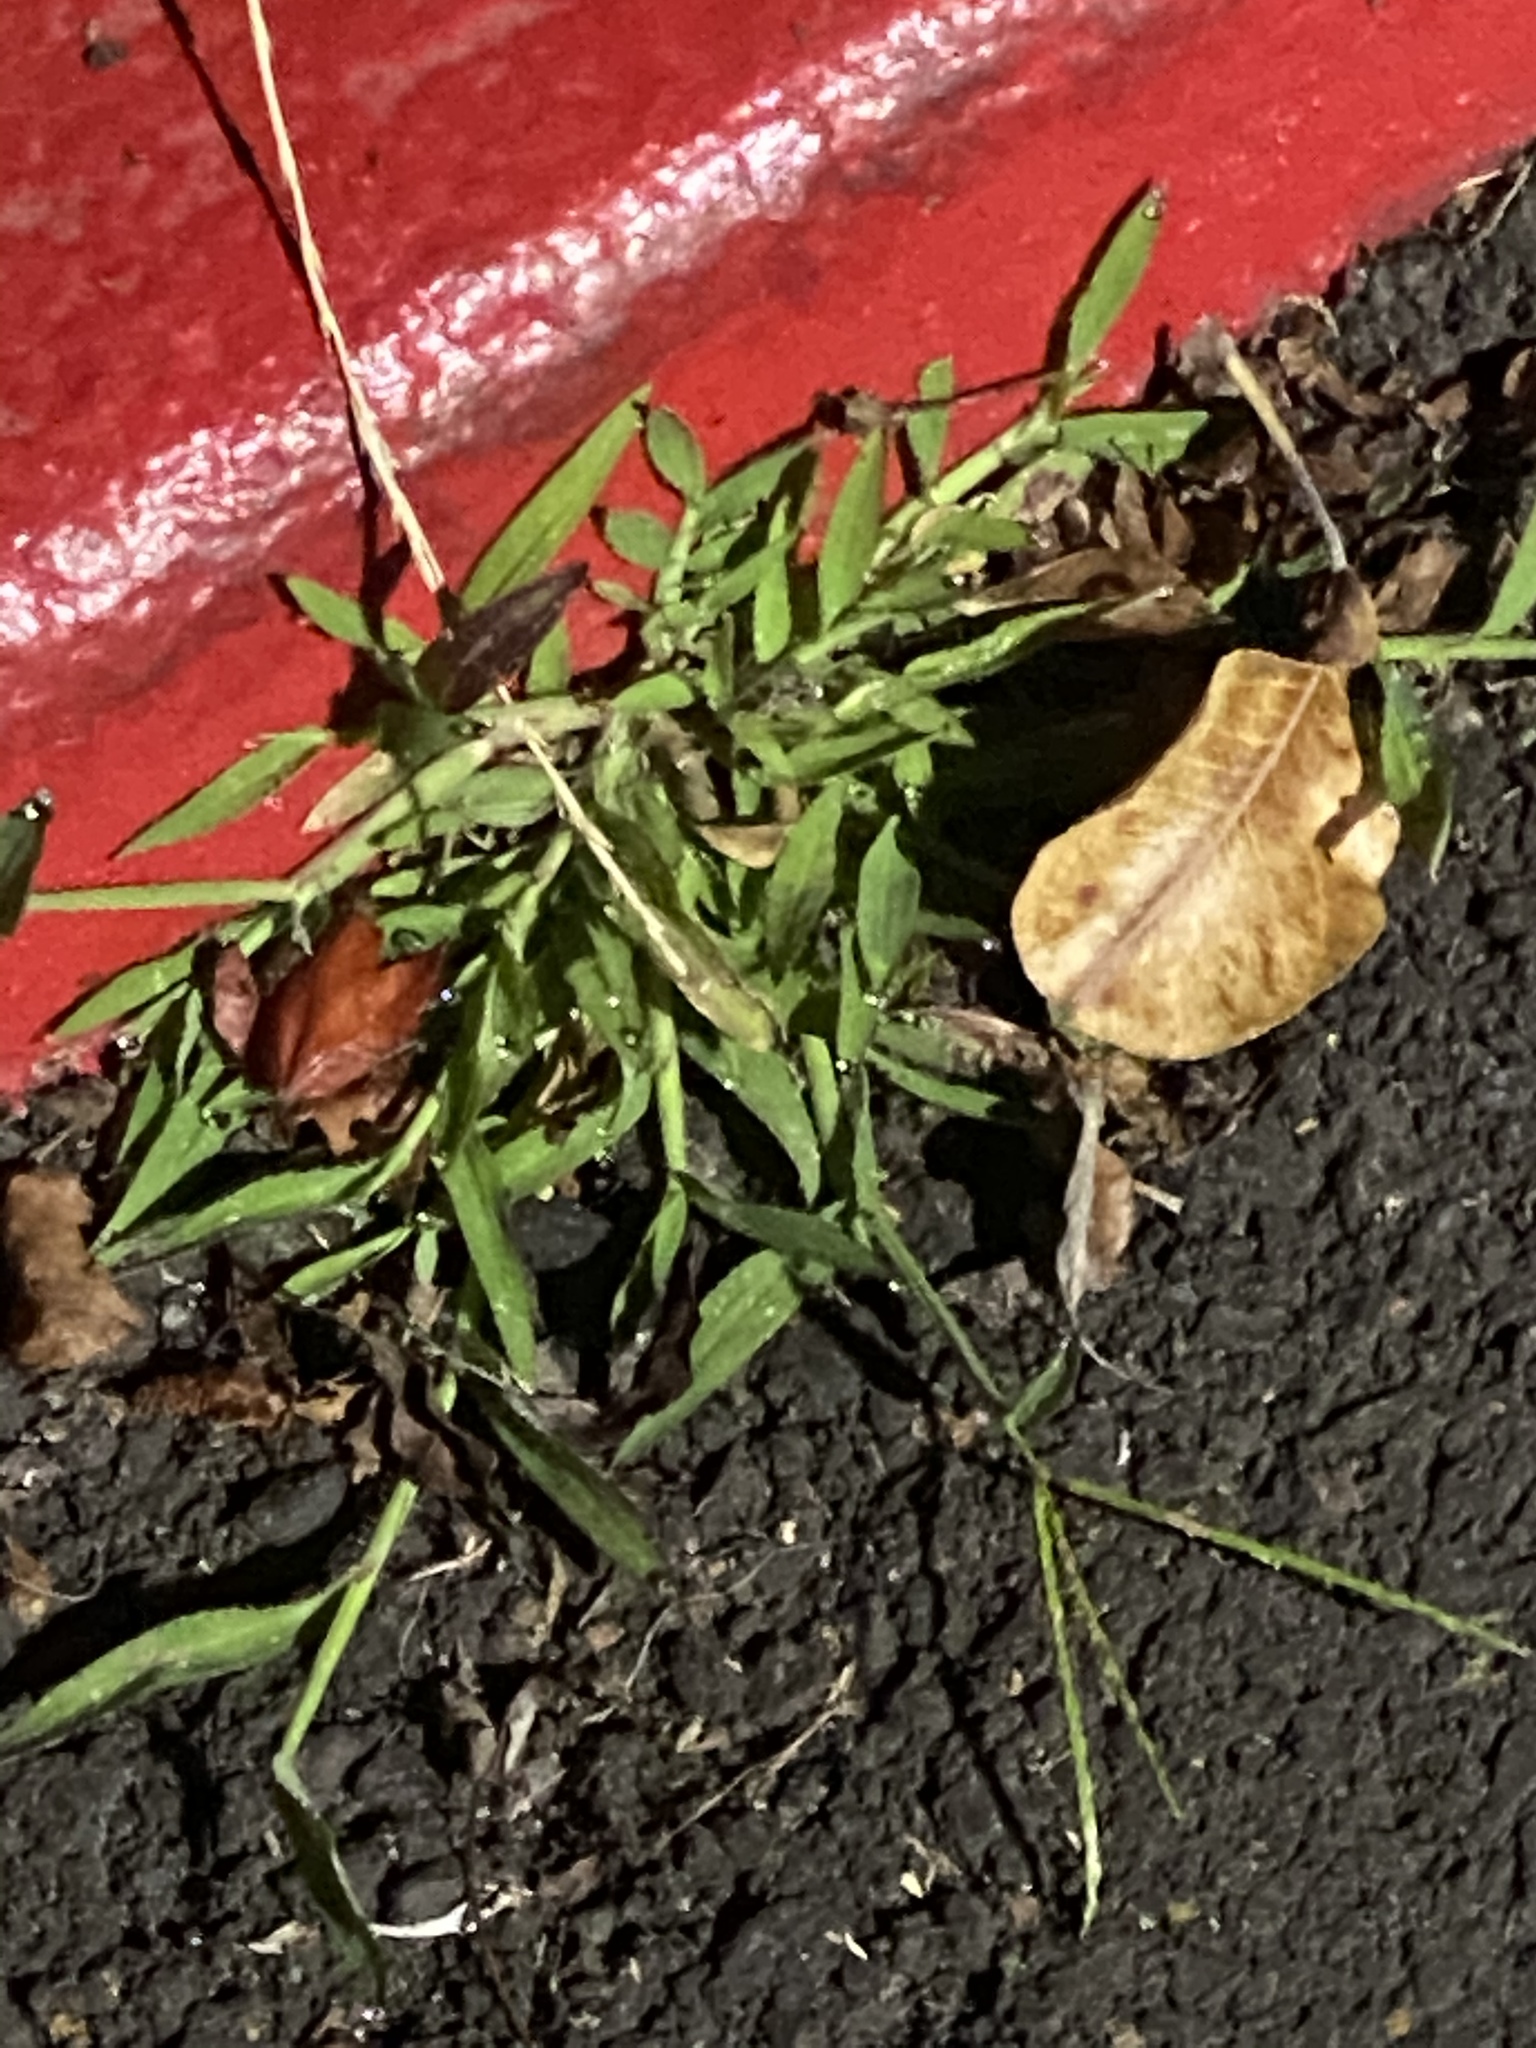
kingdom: Plantae
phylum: Tracheophyta
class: Liliopsida
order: Poales
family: Poaceae
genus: Digitaria
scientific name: Digitaria sanguinalis
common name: Hairy crabgrass
